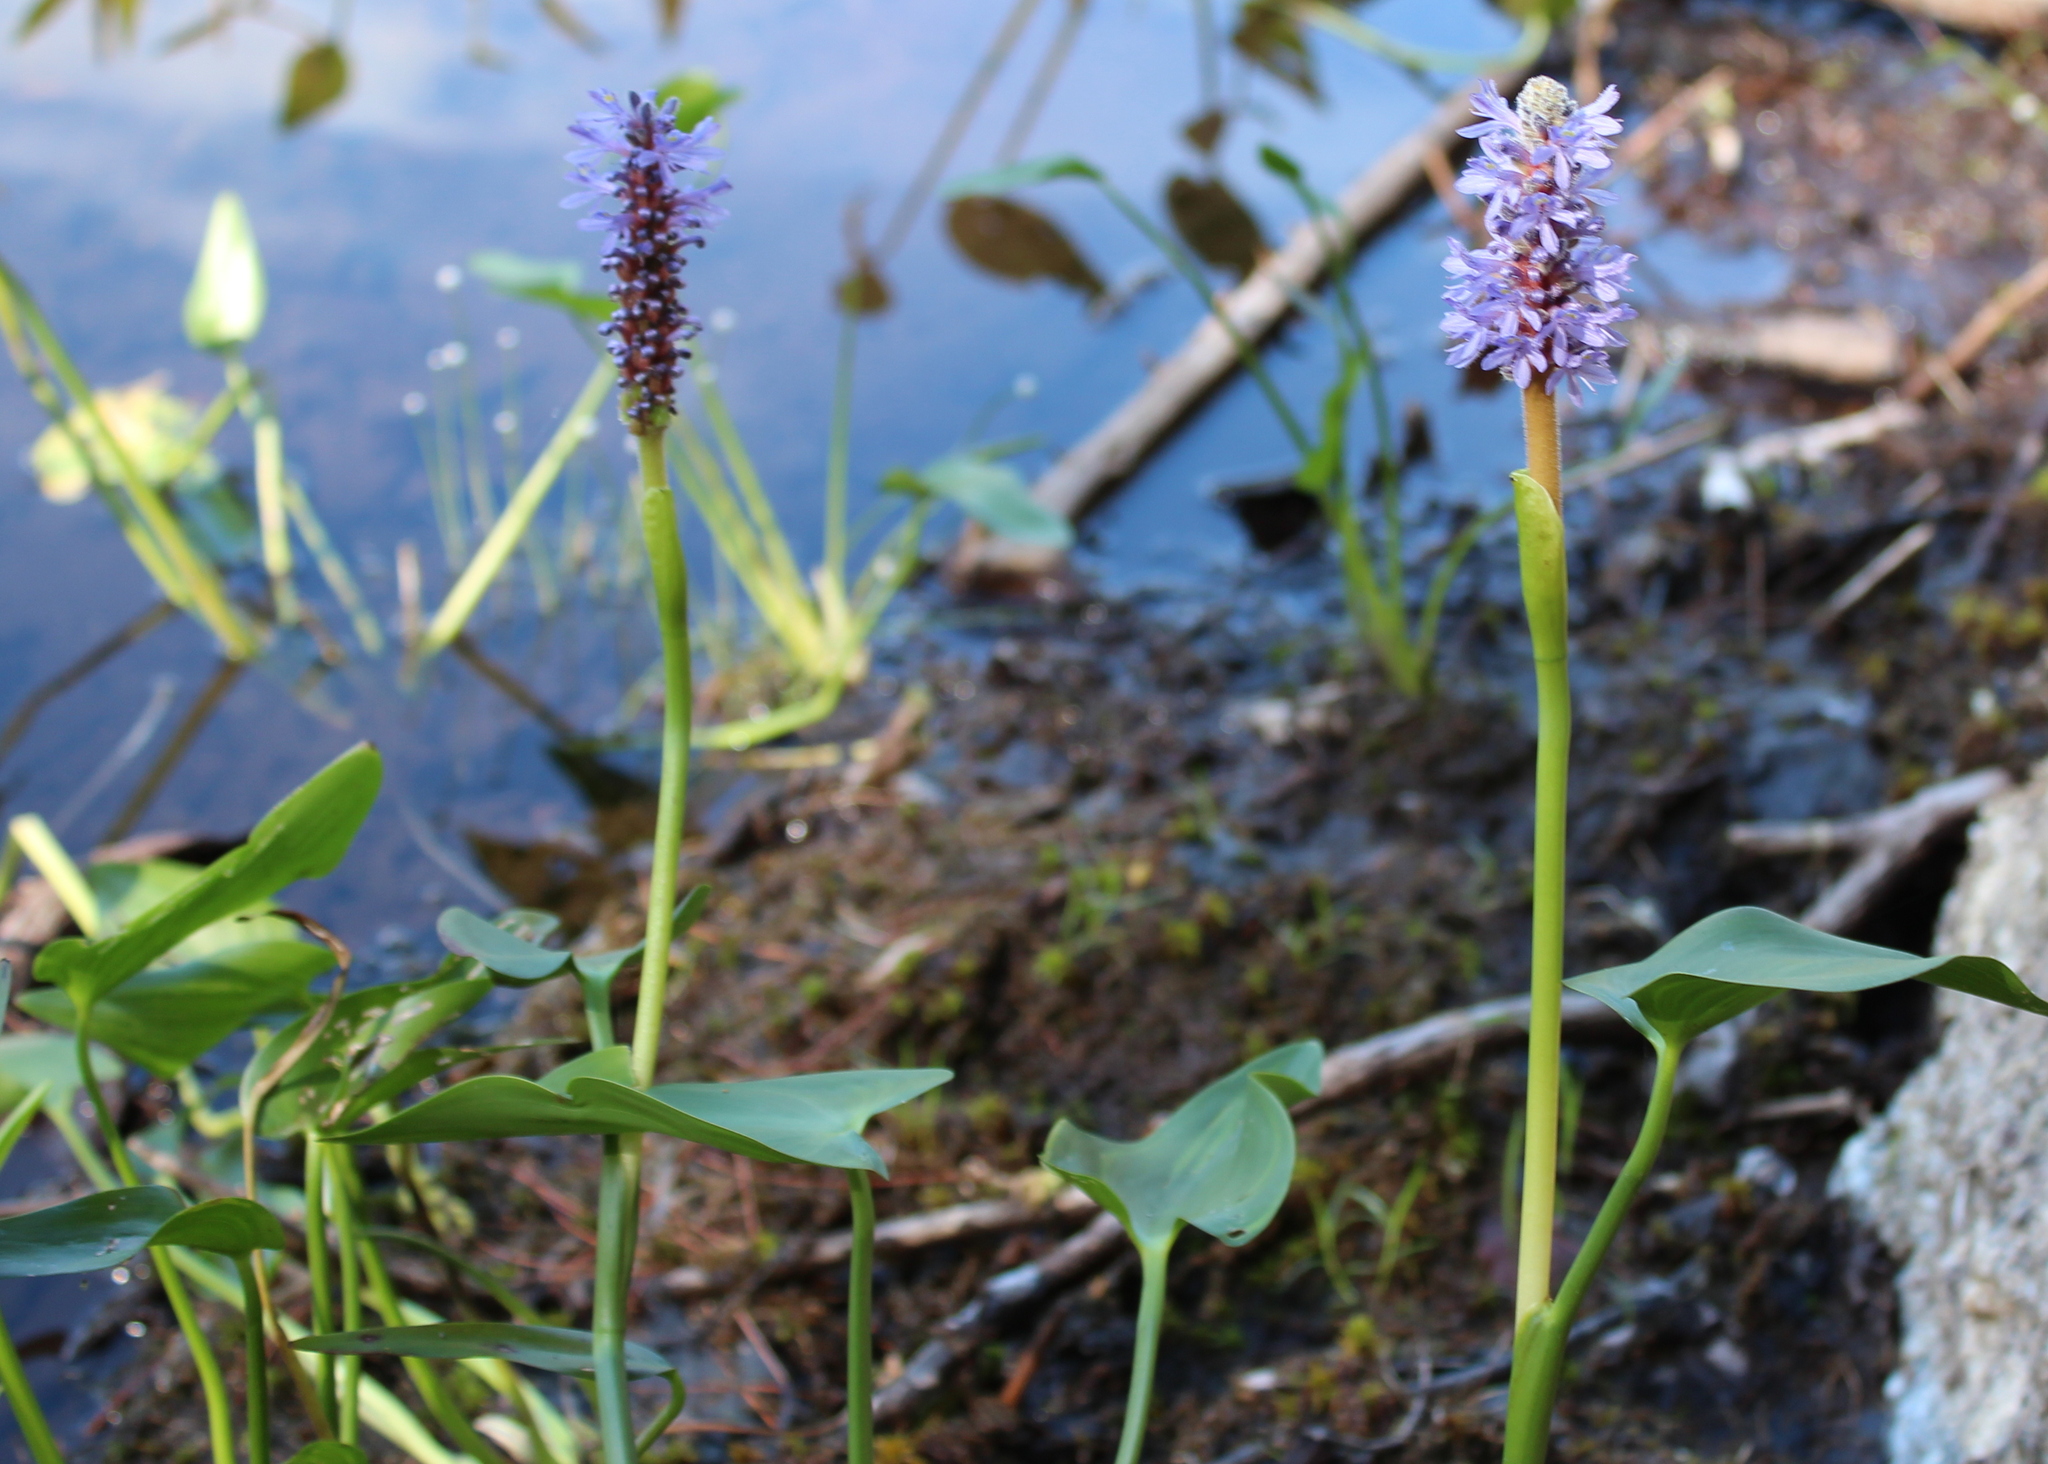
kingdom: Plantae
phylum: Tracheophyta
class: Liliopsida
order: Commelinales
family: Pontederiaceae
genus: Pontederia
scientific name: Pontederia cordata
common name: Pickerelweed
